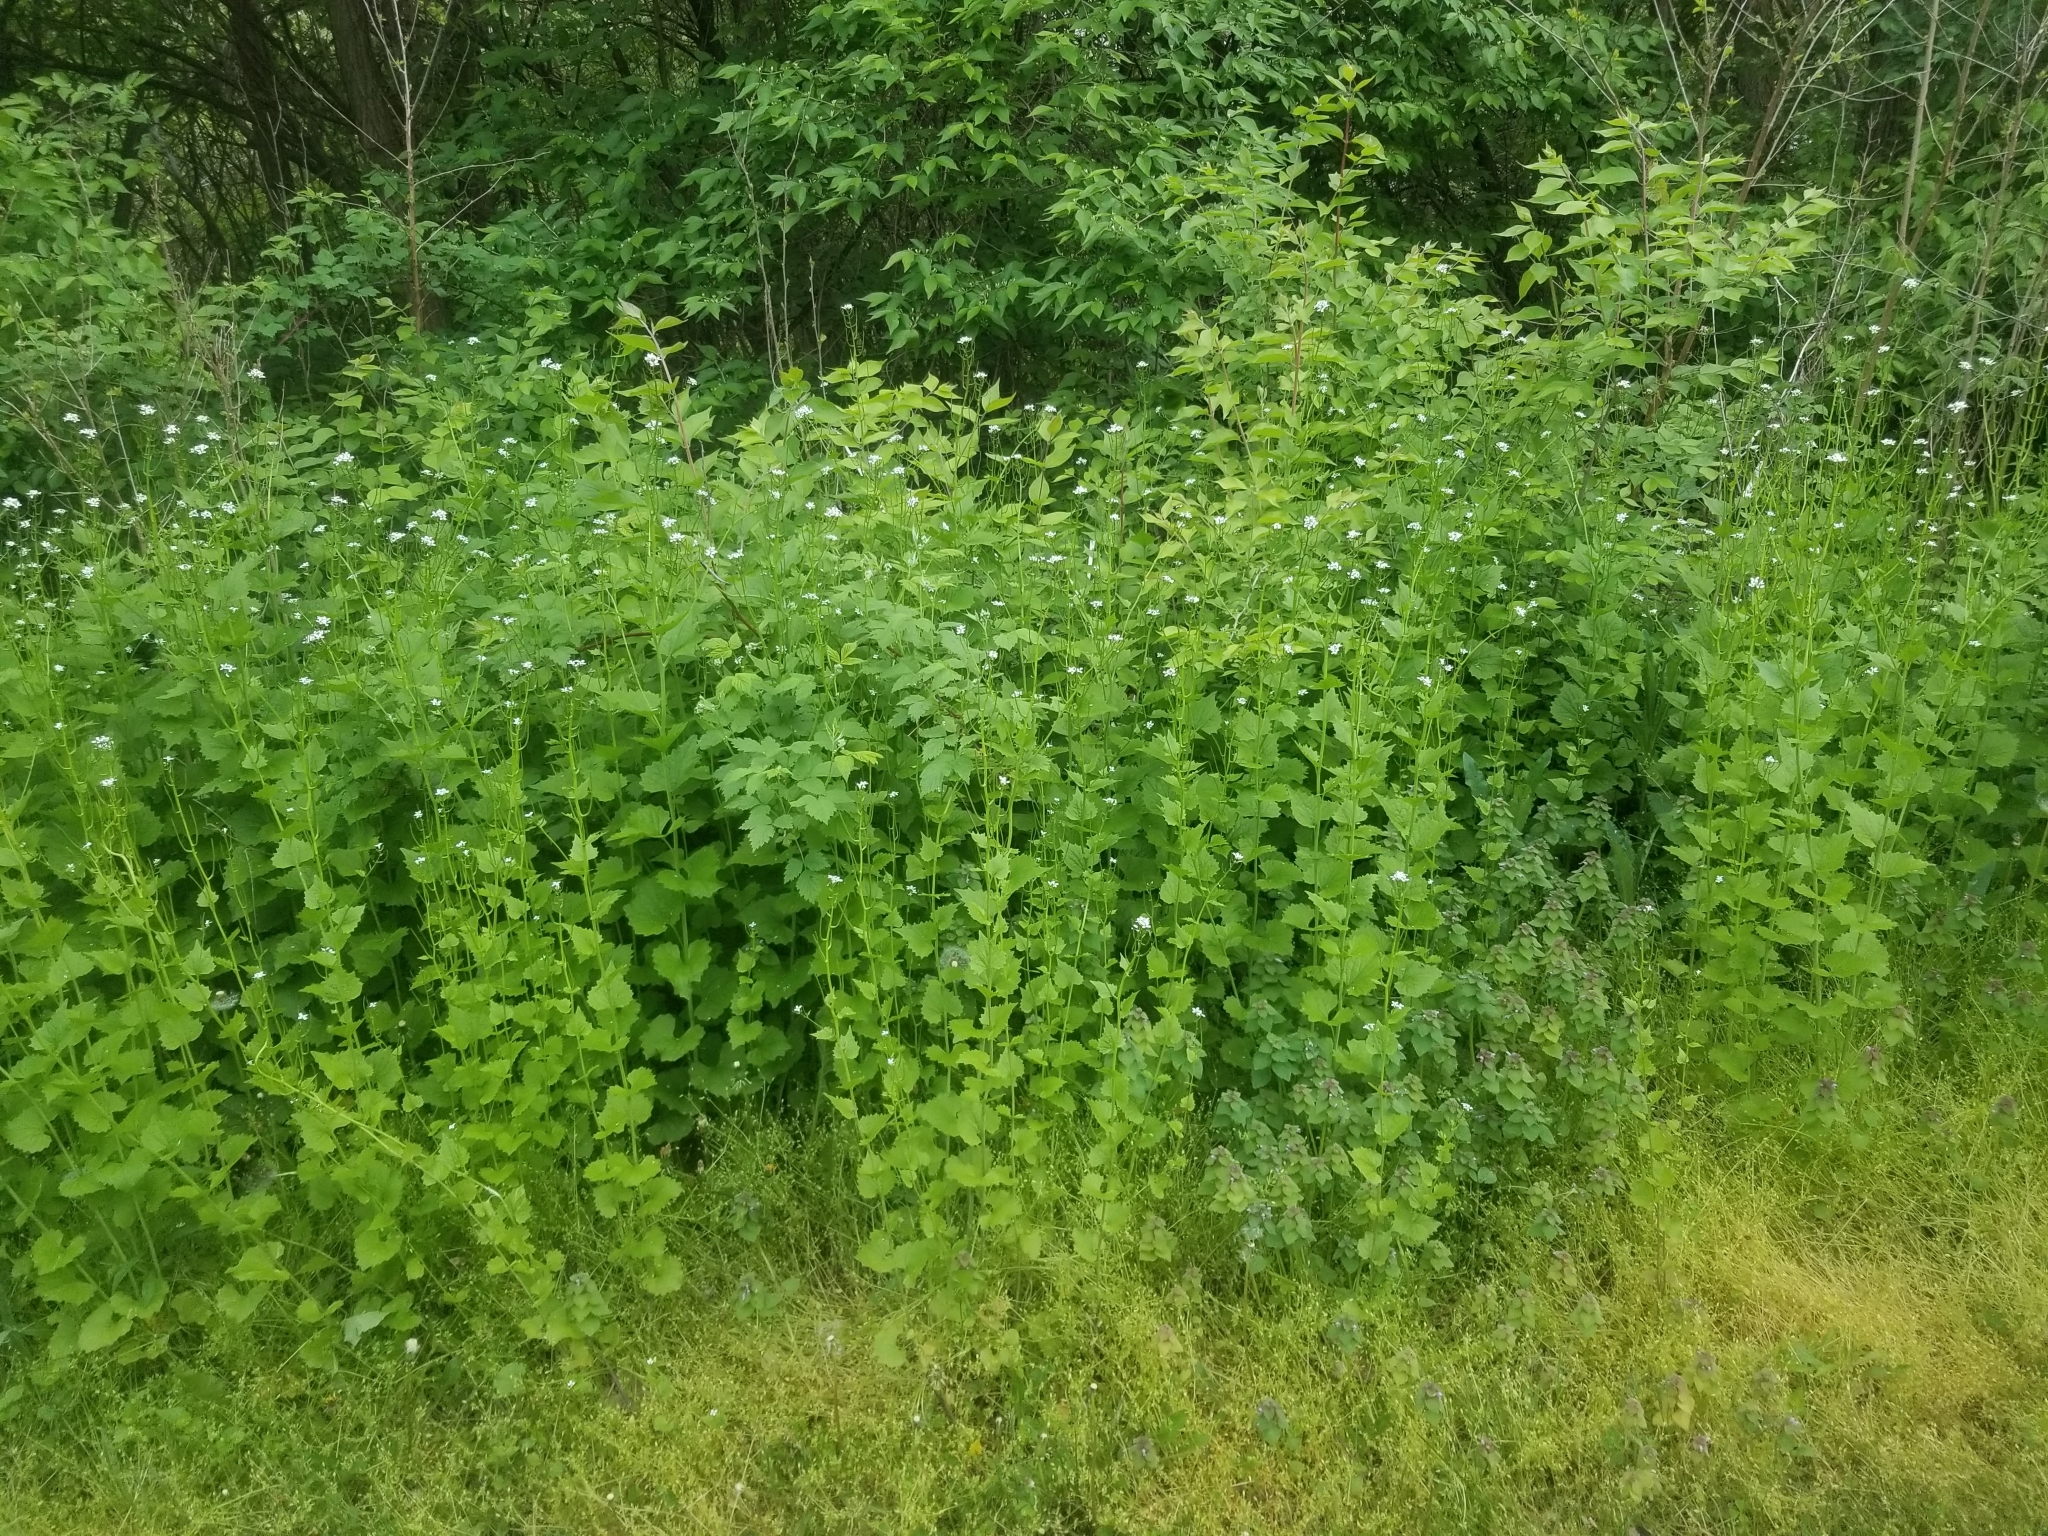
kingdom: Plantae
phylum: Tracheophyta
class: Magnoliopsida
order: Brassicales
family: Brassicaceae
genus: Alliaria
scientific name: Alliaria petiolata
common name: Garlic mustard
